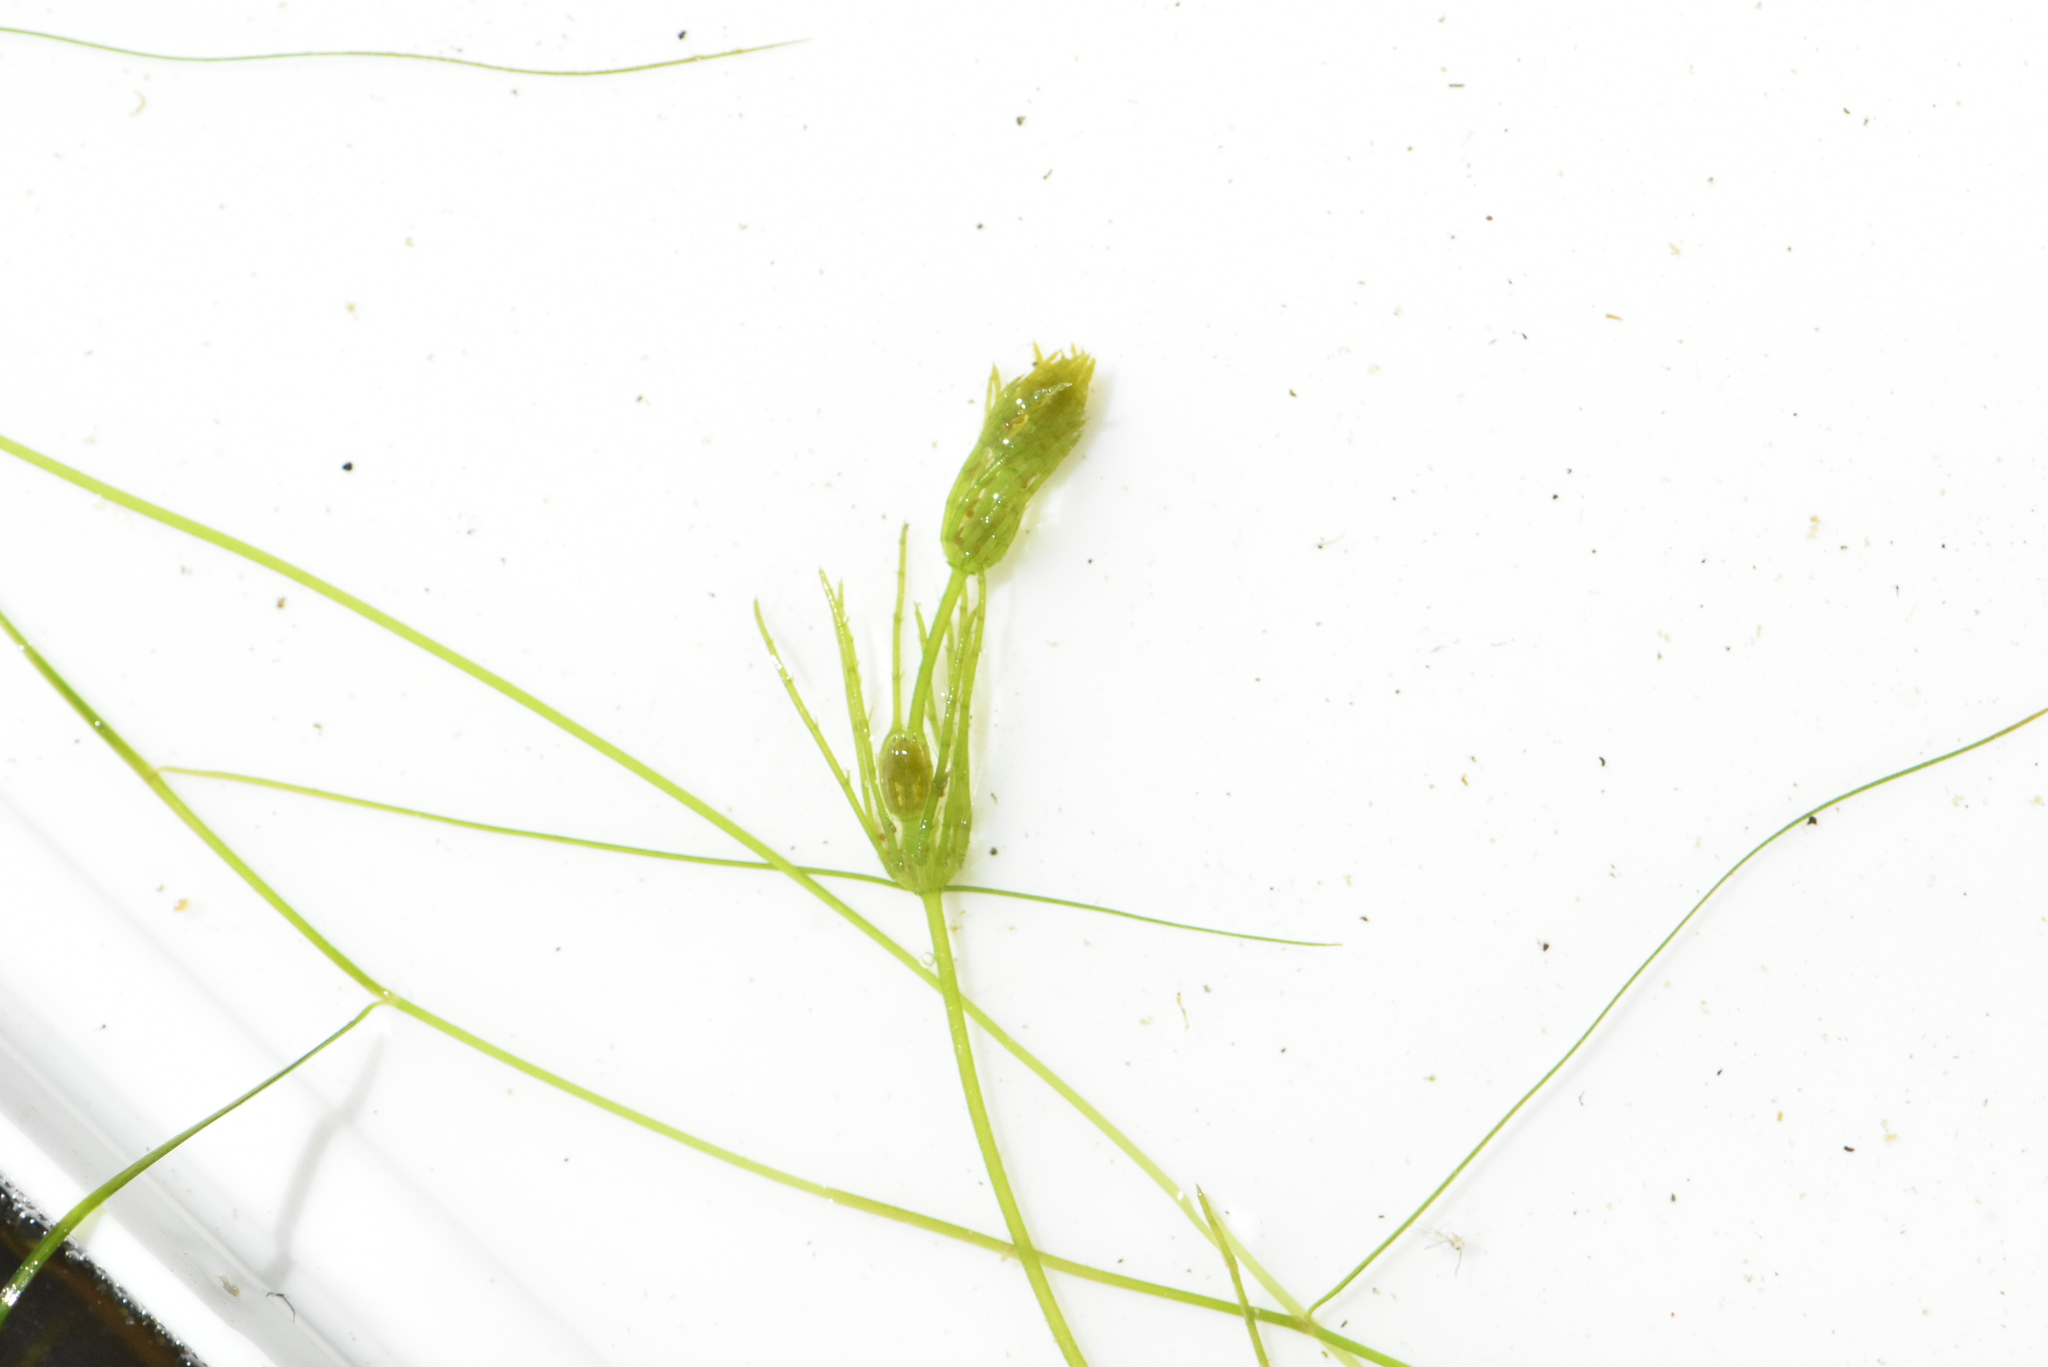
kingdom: Plantae
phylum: Charophyta
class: Charophyceae
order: Charales
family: Characeae
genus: Chara
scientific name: Chara virgata
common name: Delicate stonewort
